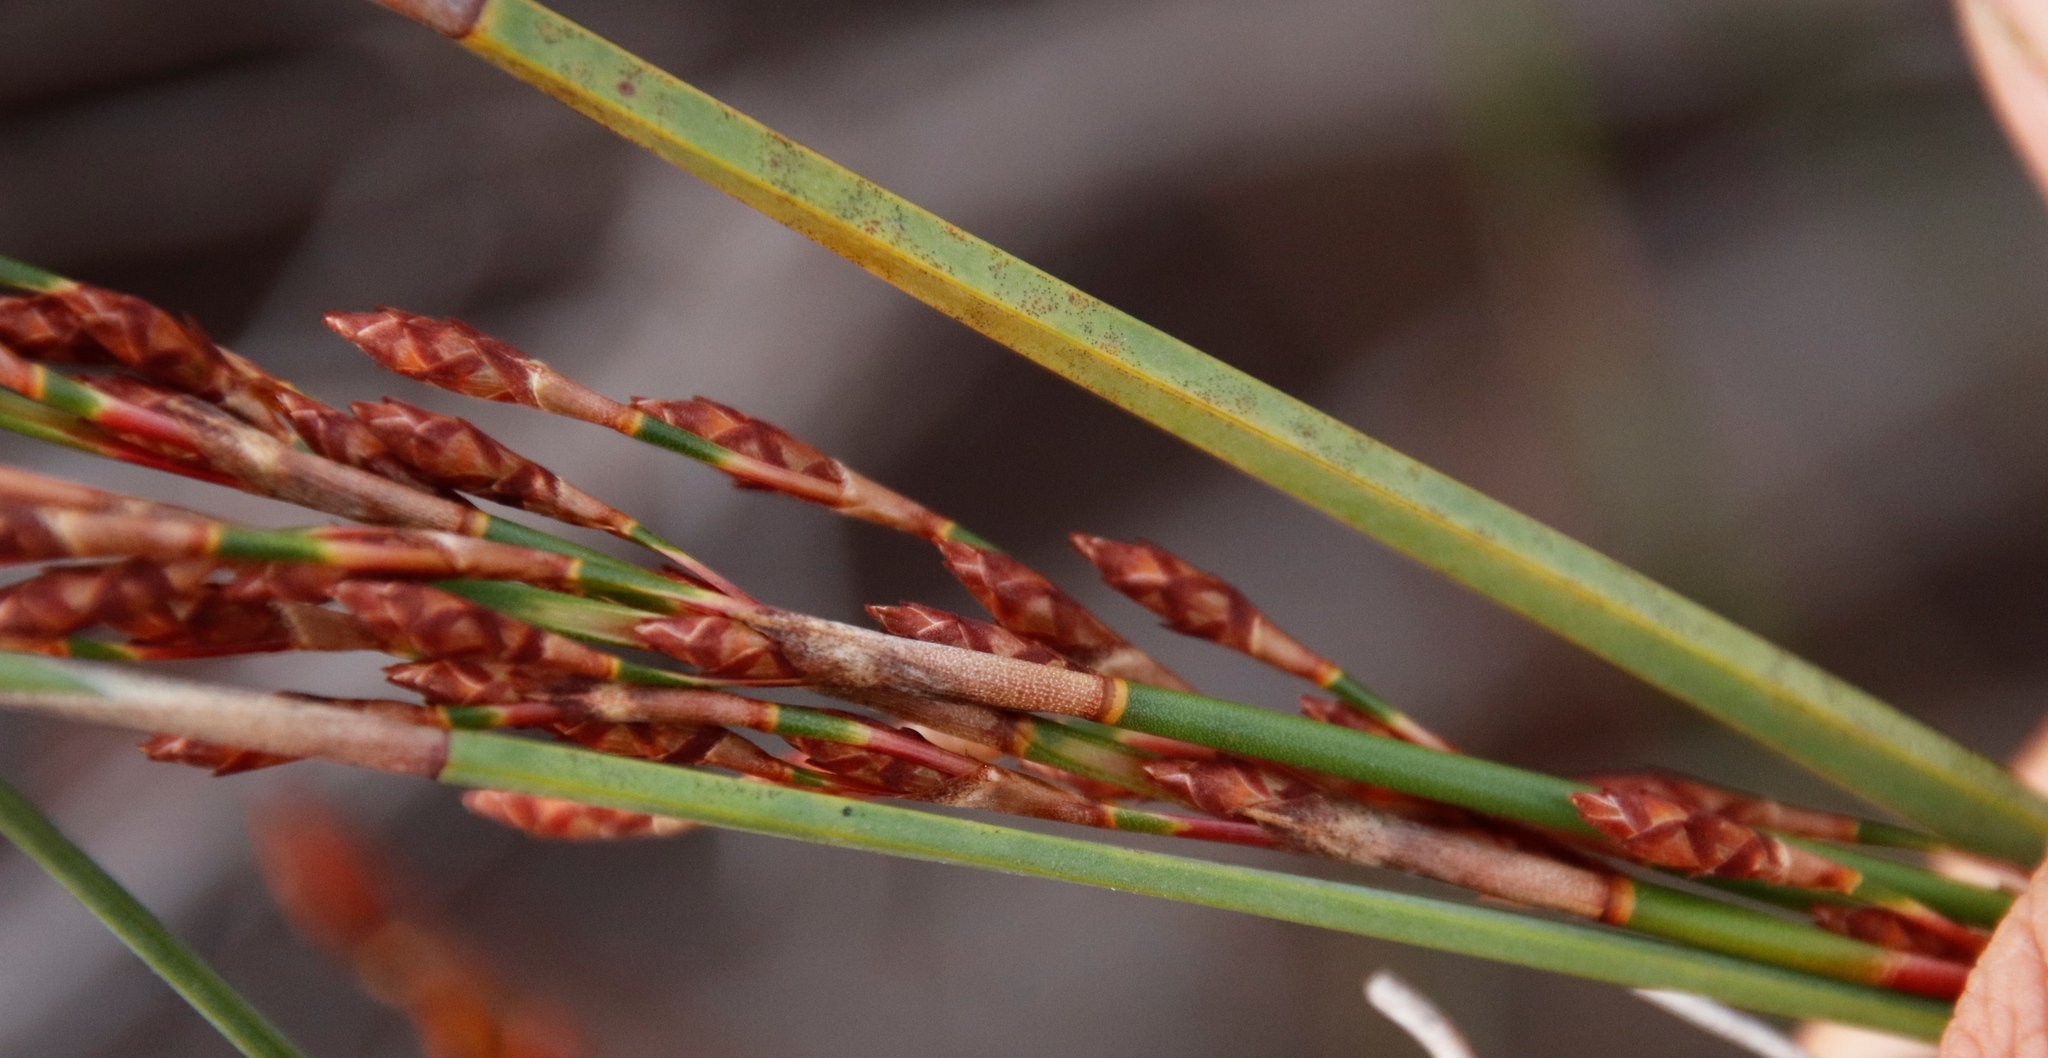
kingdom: Plantae
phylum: Tracheophyta
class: Liliopsida
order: Poales
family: Restionaceae
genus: Restio
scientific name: Restio tetragonus
